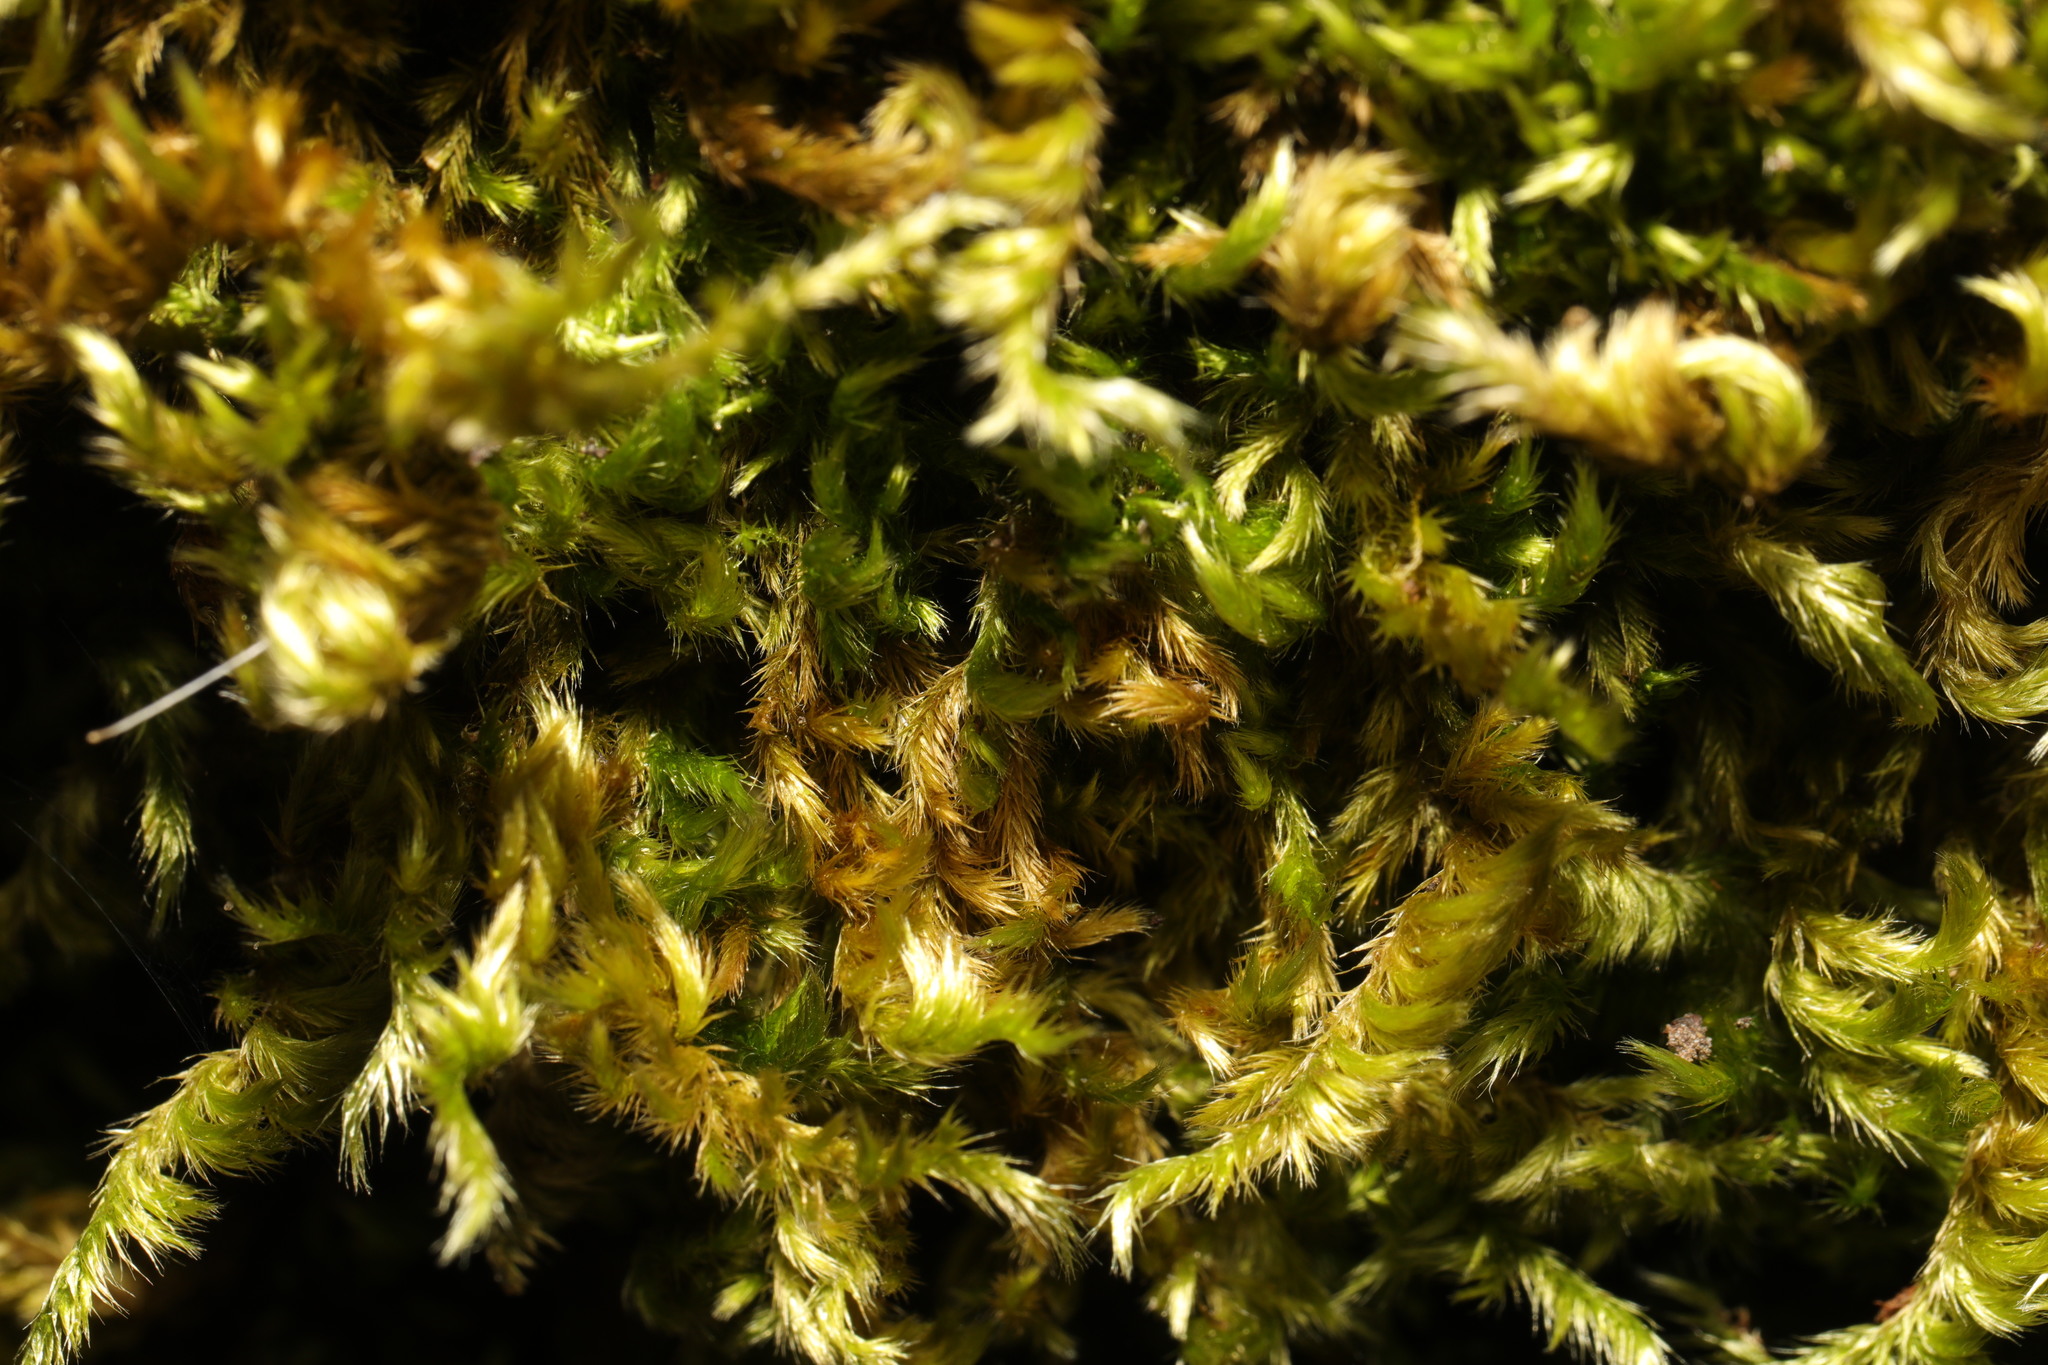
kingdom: Plantae
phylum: Bryophyta
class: Bryopsida
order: Hypnales
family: Brachytheciaceae
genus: Homalothecium
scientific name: Homalothecium sericeum
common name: Silky wall feather-moss
